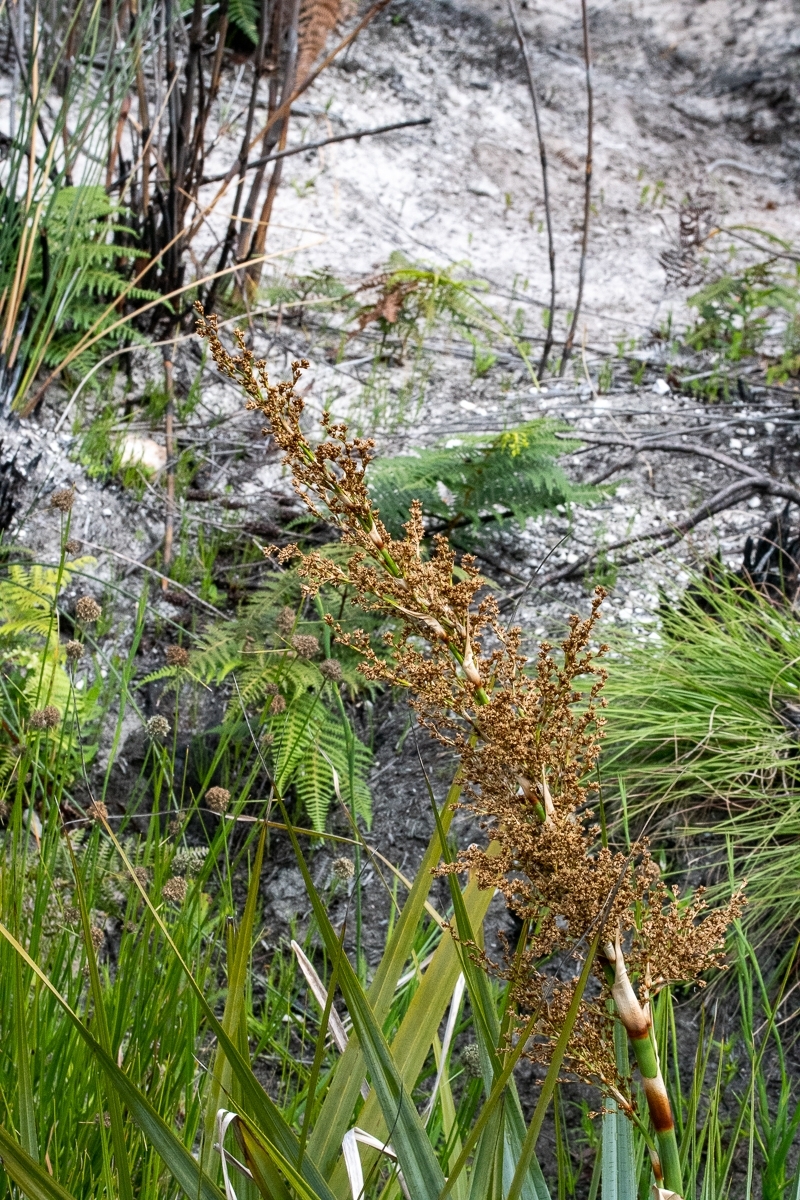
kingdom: Plantae
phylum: Tracheophyta
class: Liliopsida
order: Poales
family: Thurniaceae
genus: Prionium
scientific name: Prionium serratum
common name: Palmiet
